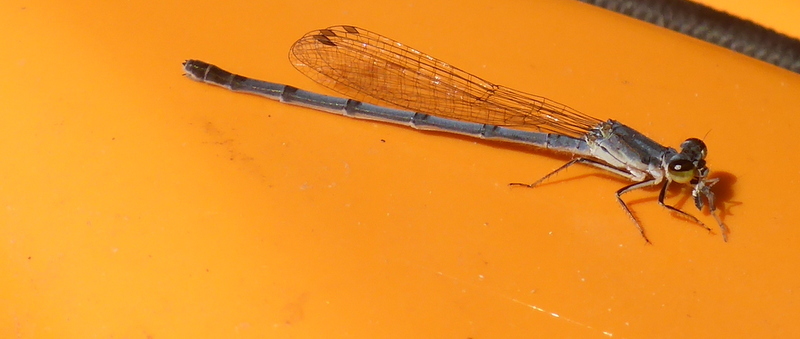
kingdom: Animalia
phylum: Arthropoda
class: Insecta
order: Odonata
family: Coenagrionidae
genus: Ischnura
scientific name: Ischnura posita
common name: Fragile forktail
